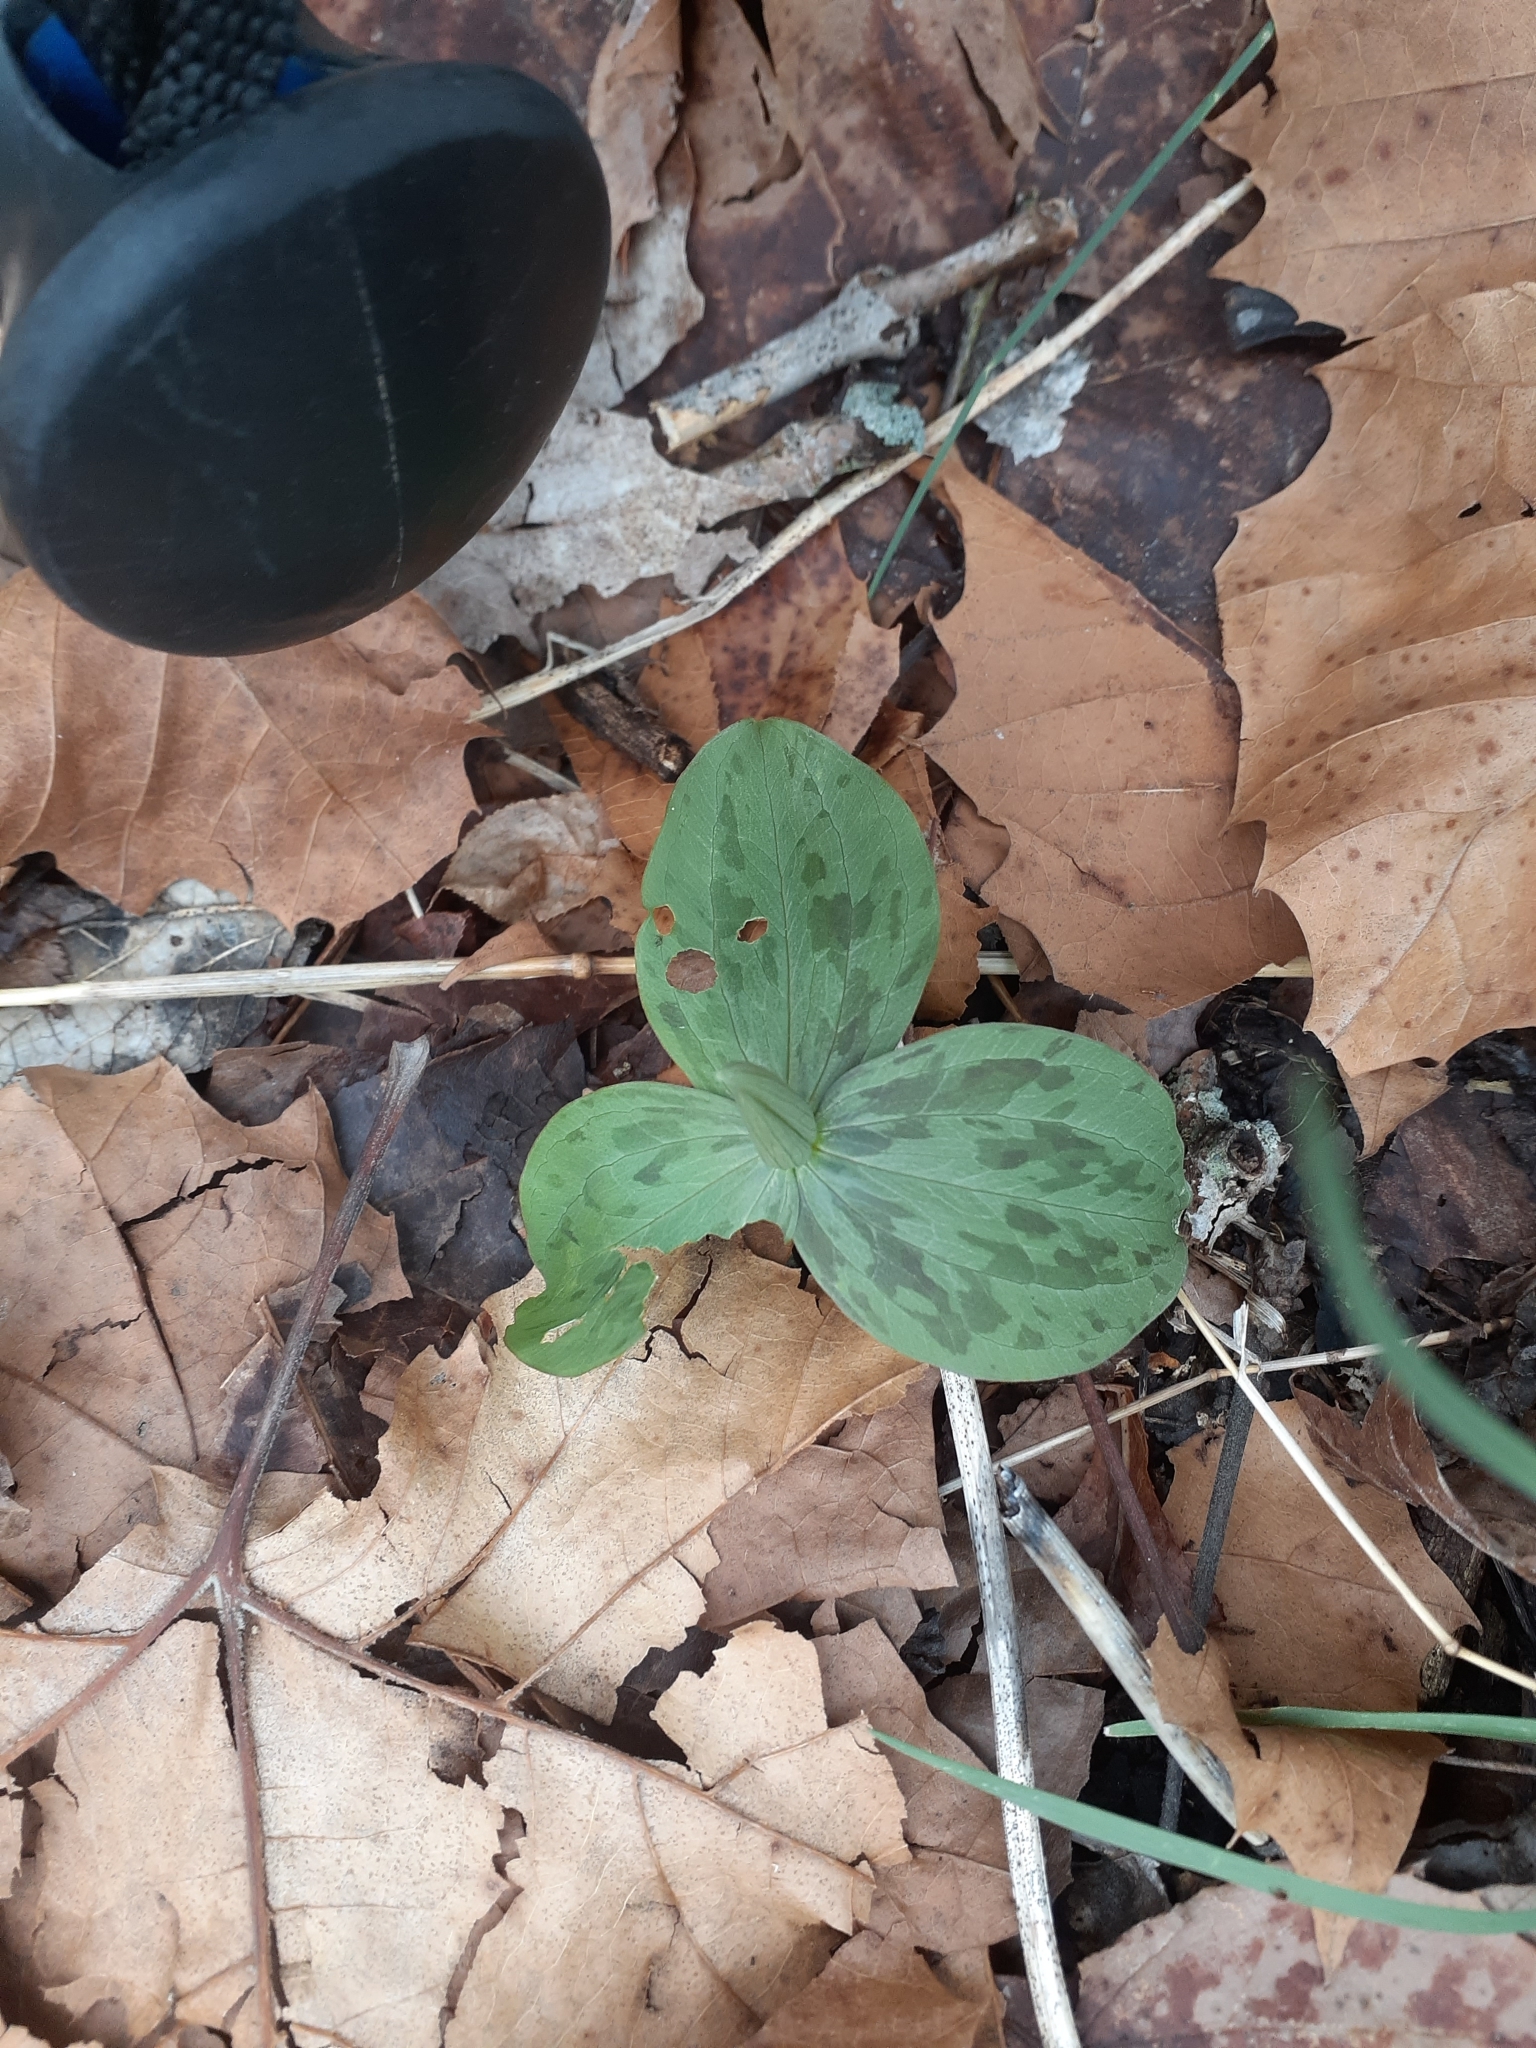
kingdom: Plantae
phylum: Tracheophyta
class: Liliopsida
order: Liliales
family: Melanthiaceae
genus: Trillium
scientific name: Trillium sessile
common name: Sessile trillium
